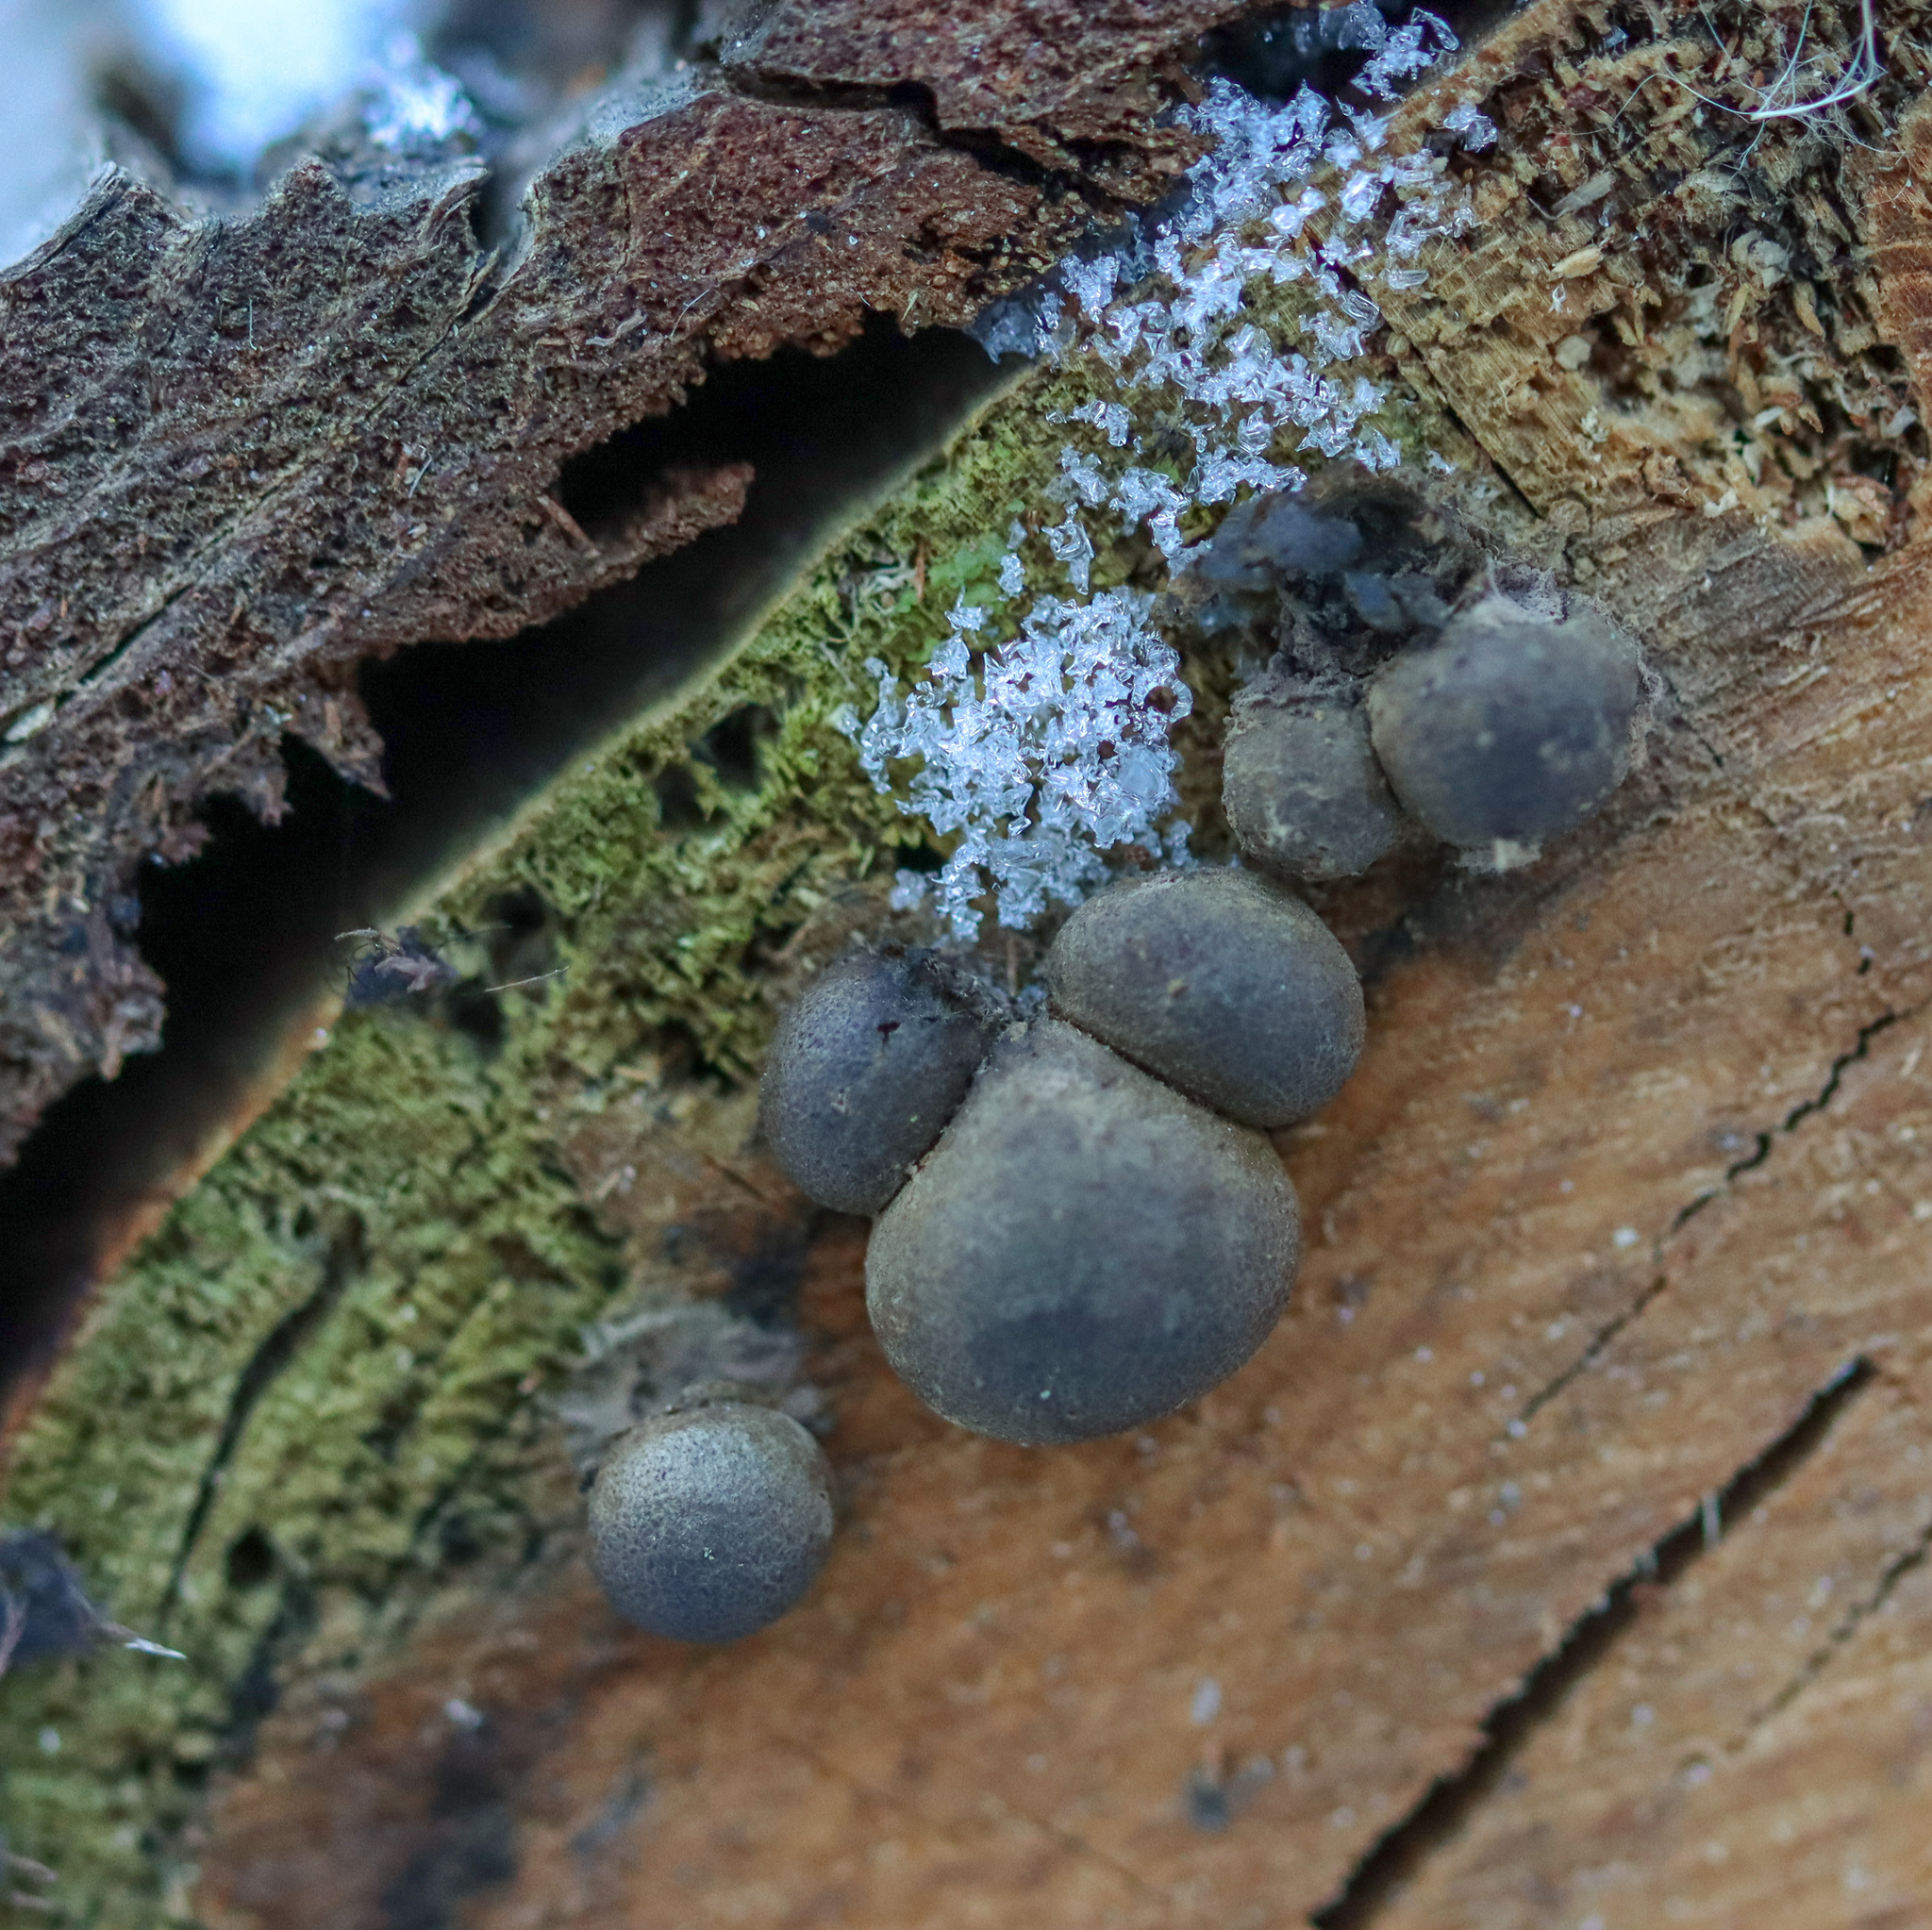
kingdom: Protozoa
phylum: Mycetozoa
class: Myxomycetes
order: Cribrariales
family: Tubiferaceae
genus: Lycogala
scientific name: Lycogala epidendrum
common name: Wolf's milk
